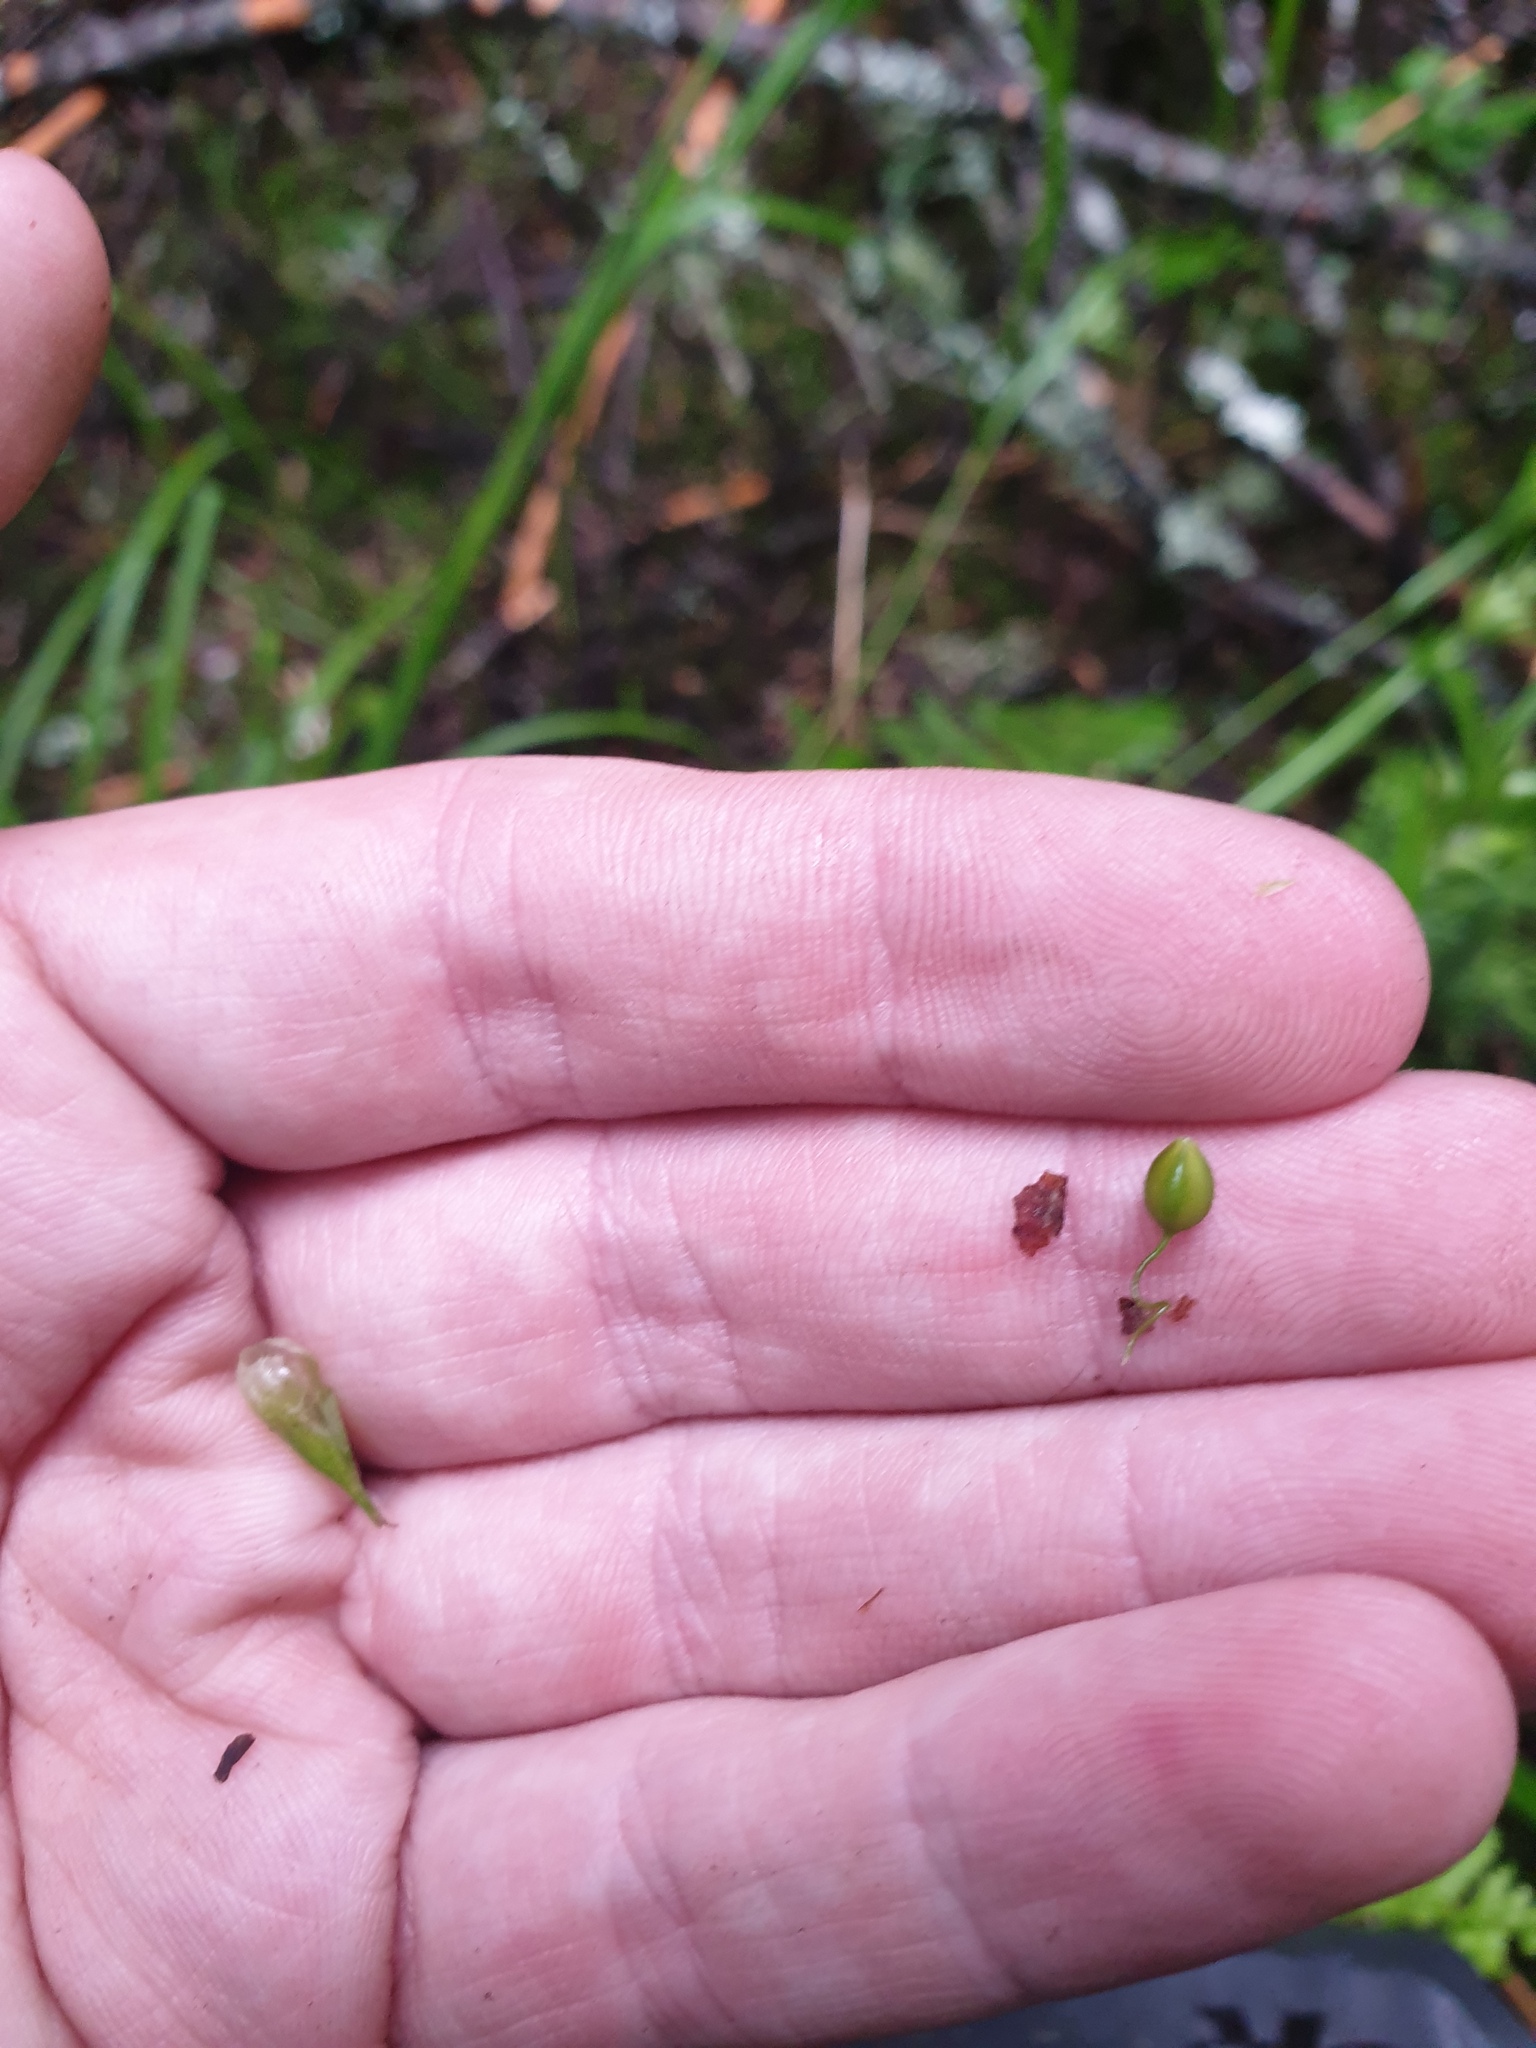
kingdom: Plantae
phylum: Tracheophyta
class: Liliopsida
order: Poales
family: Cyperaceae
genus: Carex
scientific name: Carex intumescens
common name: Greater bladder sedge
